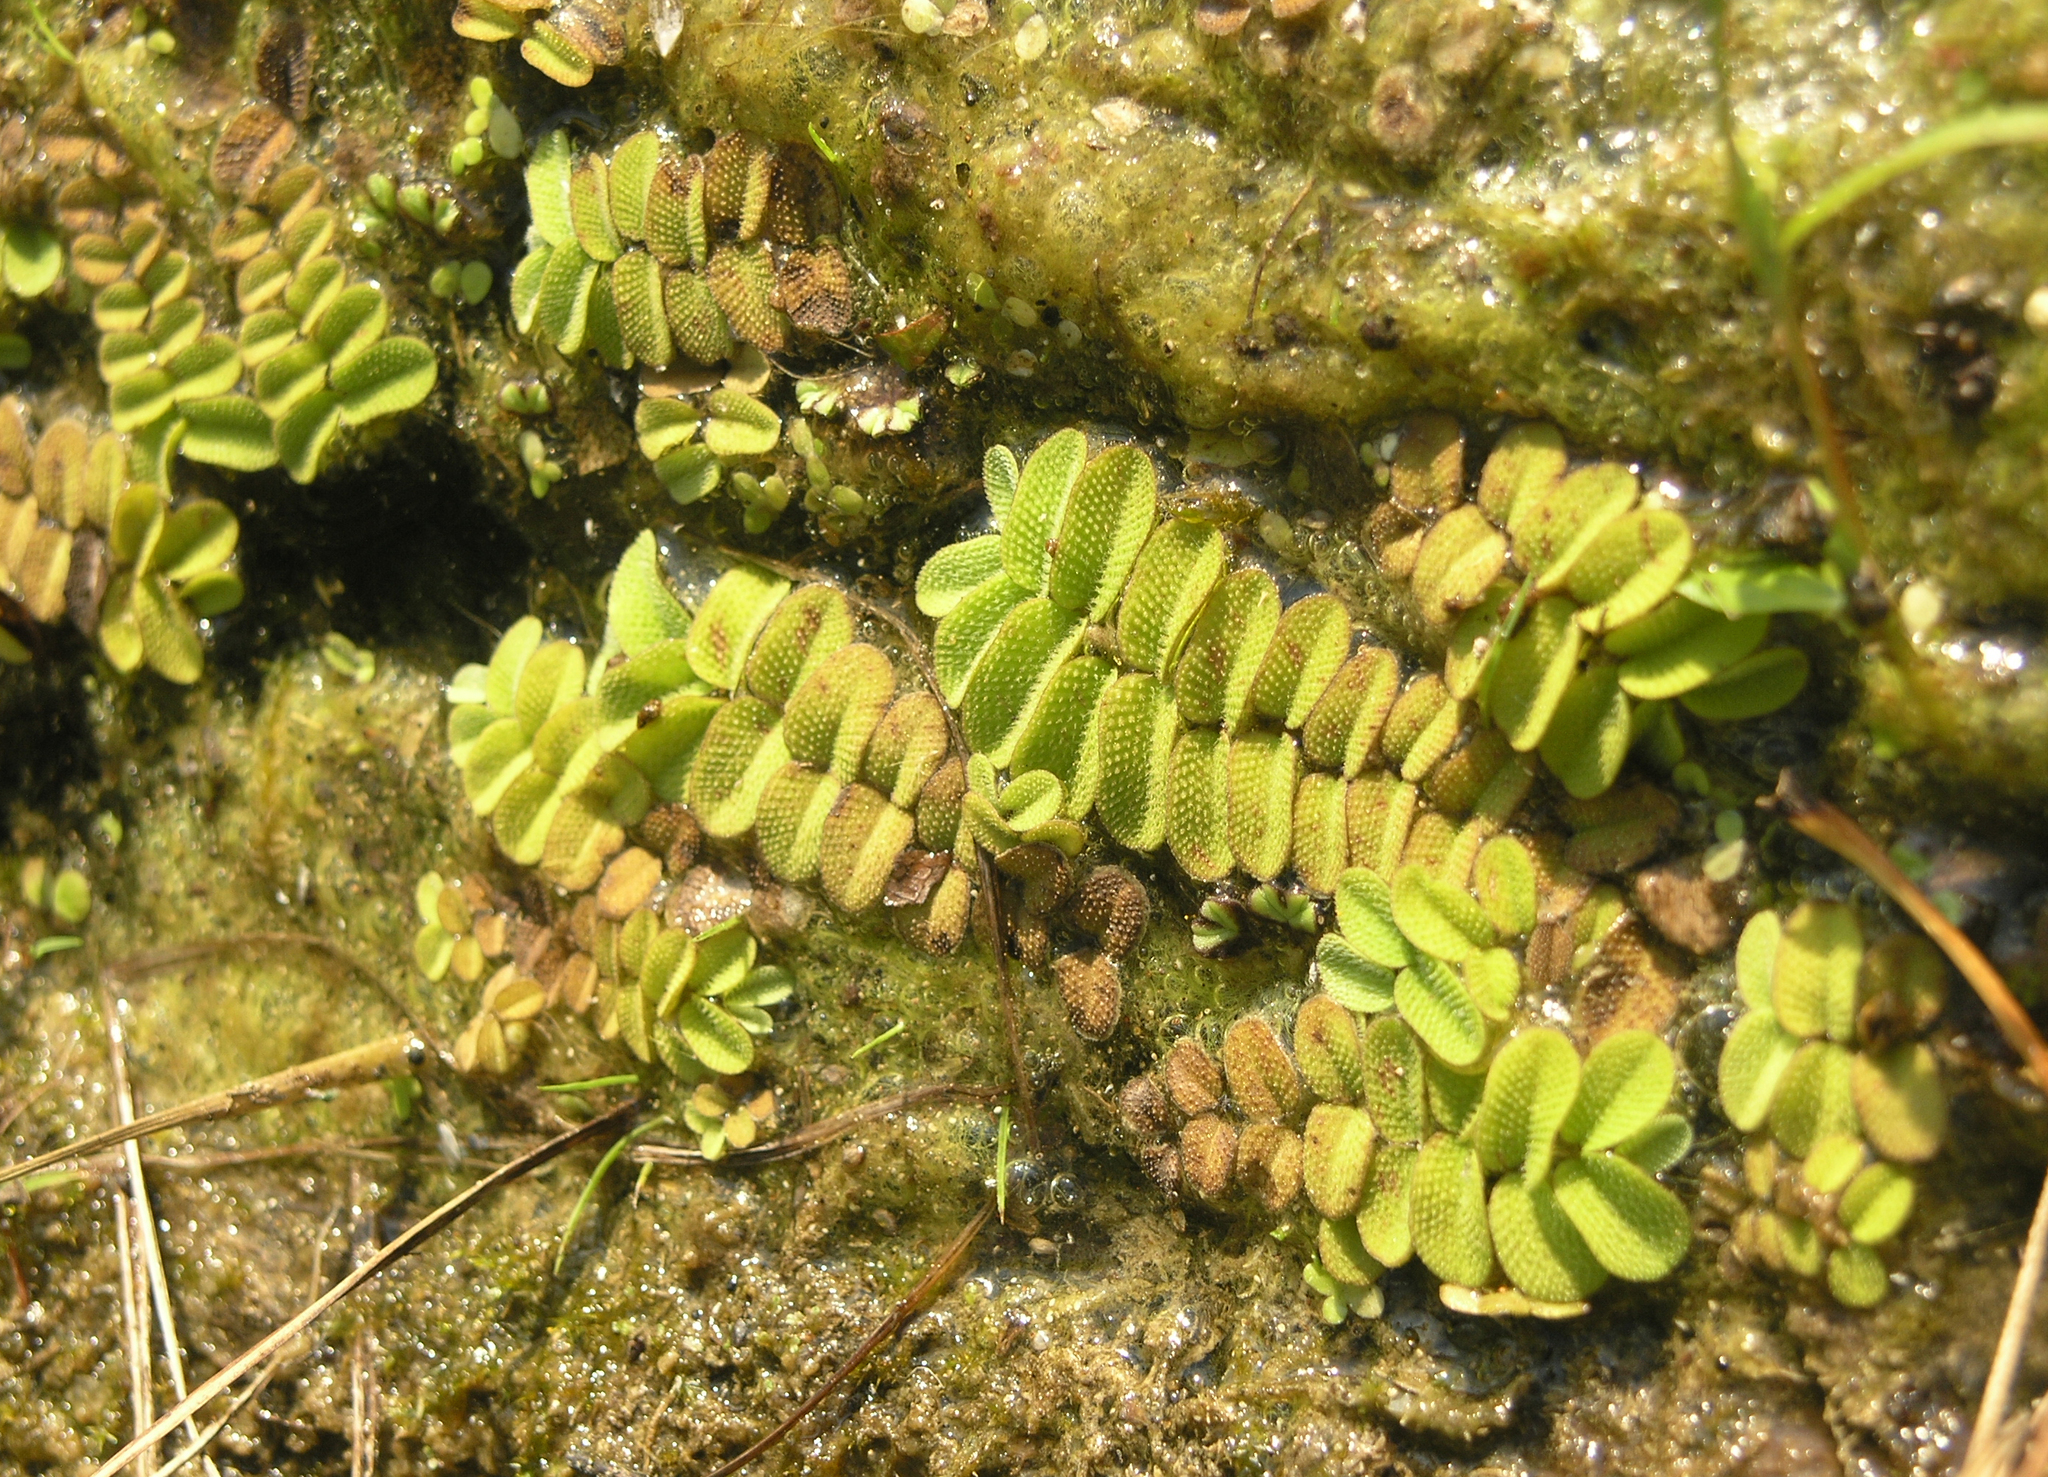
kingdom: Plantae
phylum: Tracheophyta
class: Polypodiopsida
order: Salviniales
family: Salviniaceae
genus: Salvinia
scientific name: Salvinia natans
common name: Floating fern
